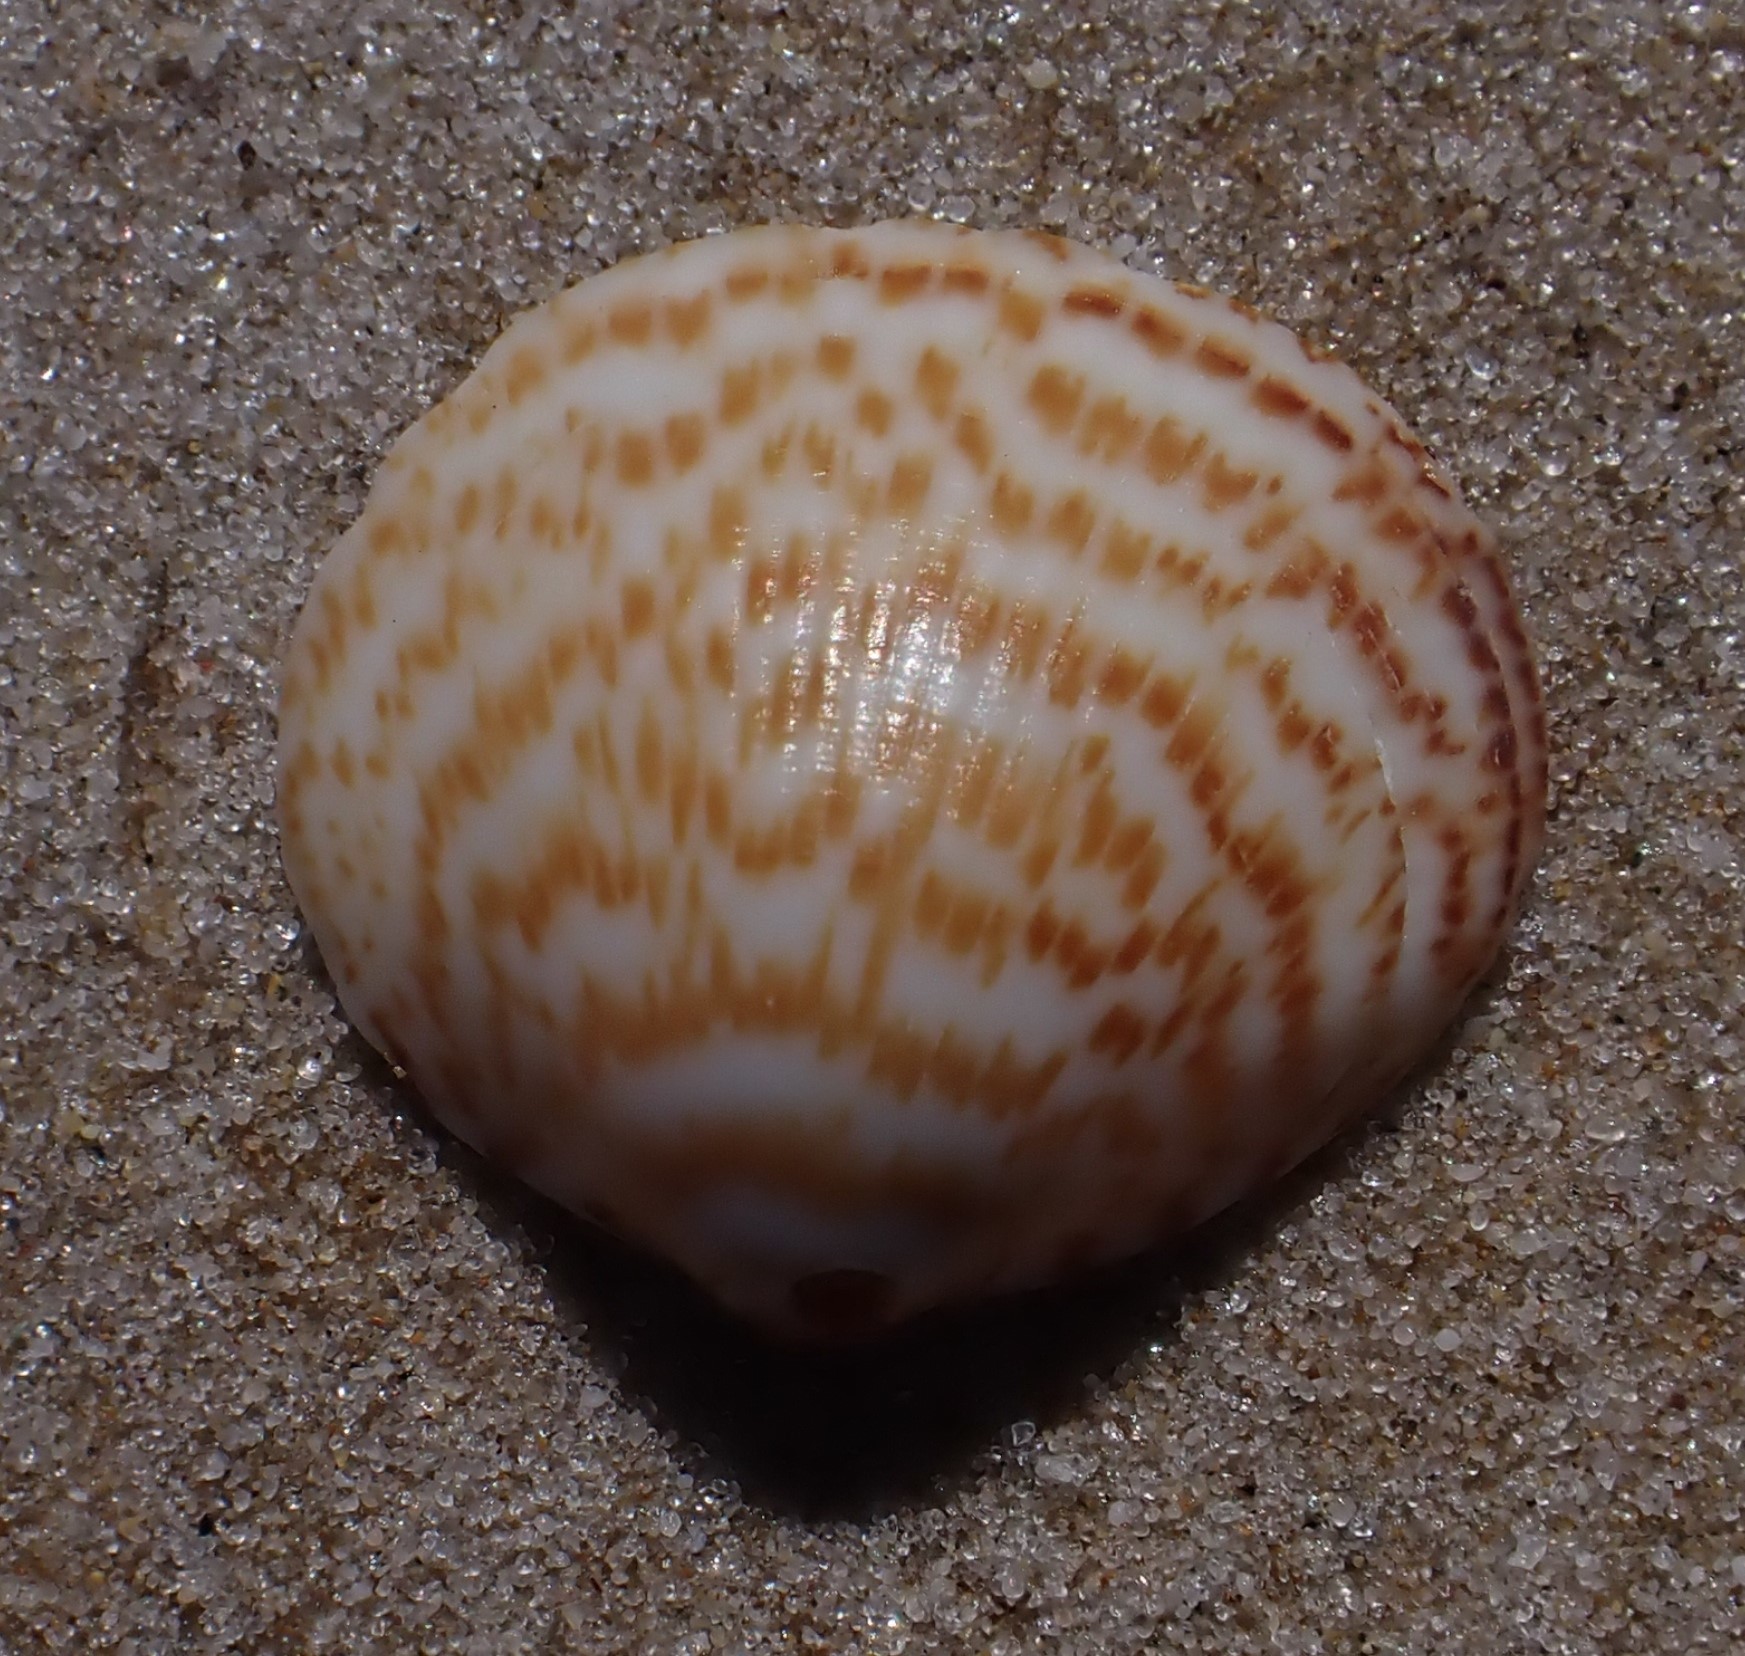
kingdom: Animalia
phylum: Mollusca
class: Bivalvia
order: Arcida
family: Glycymerididae
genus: Glycymeris
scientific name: Glycymeris striatularis
